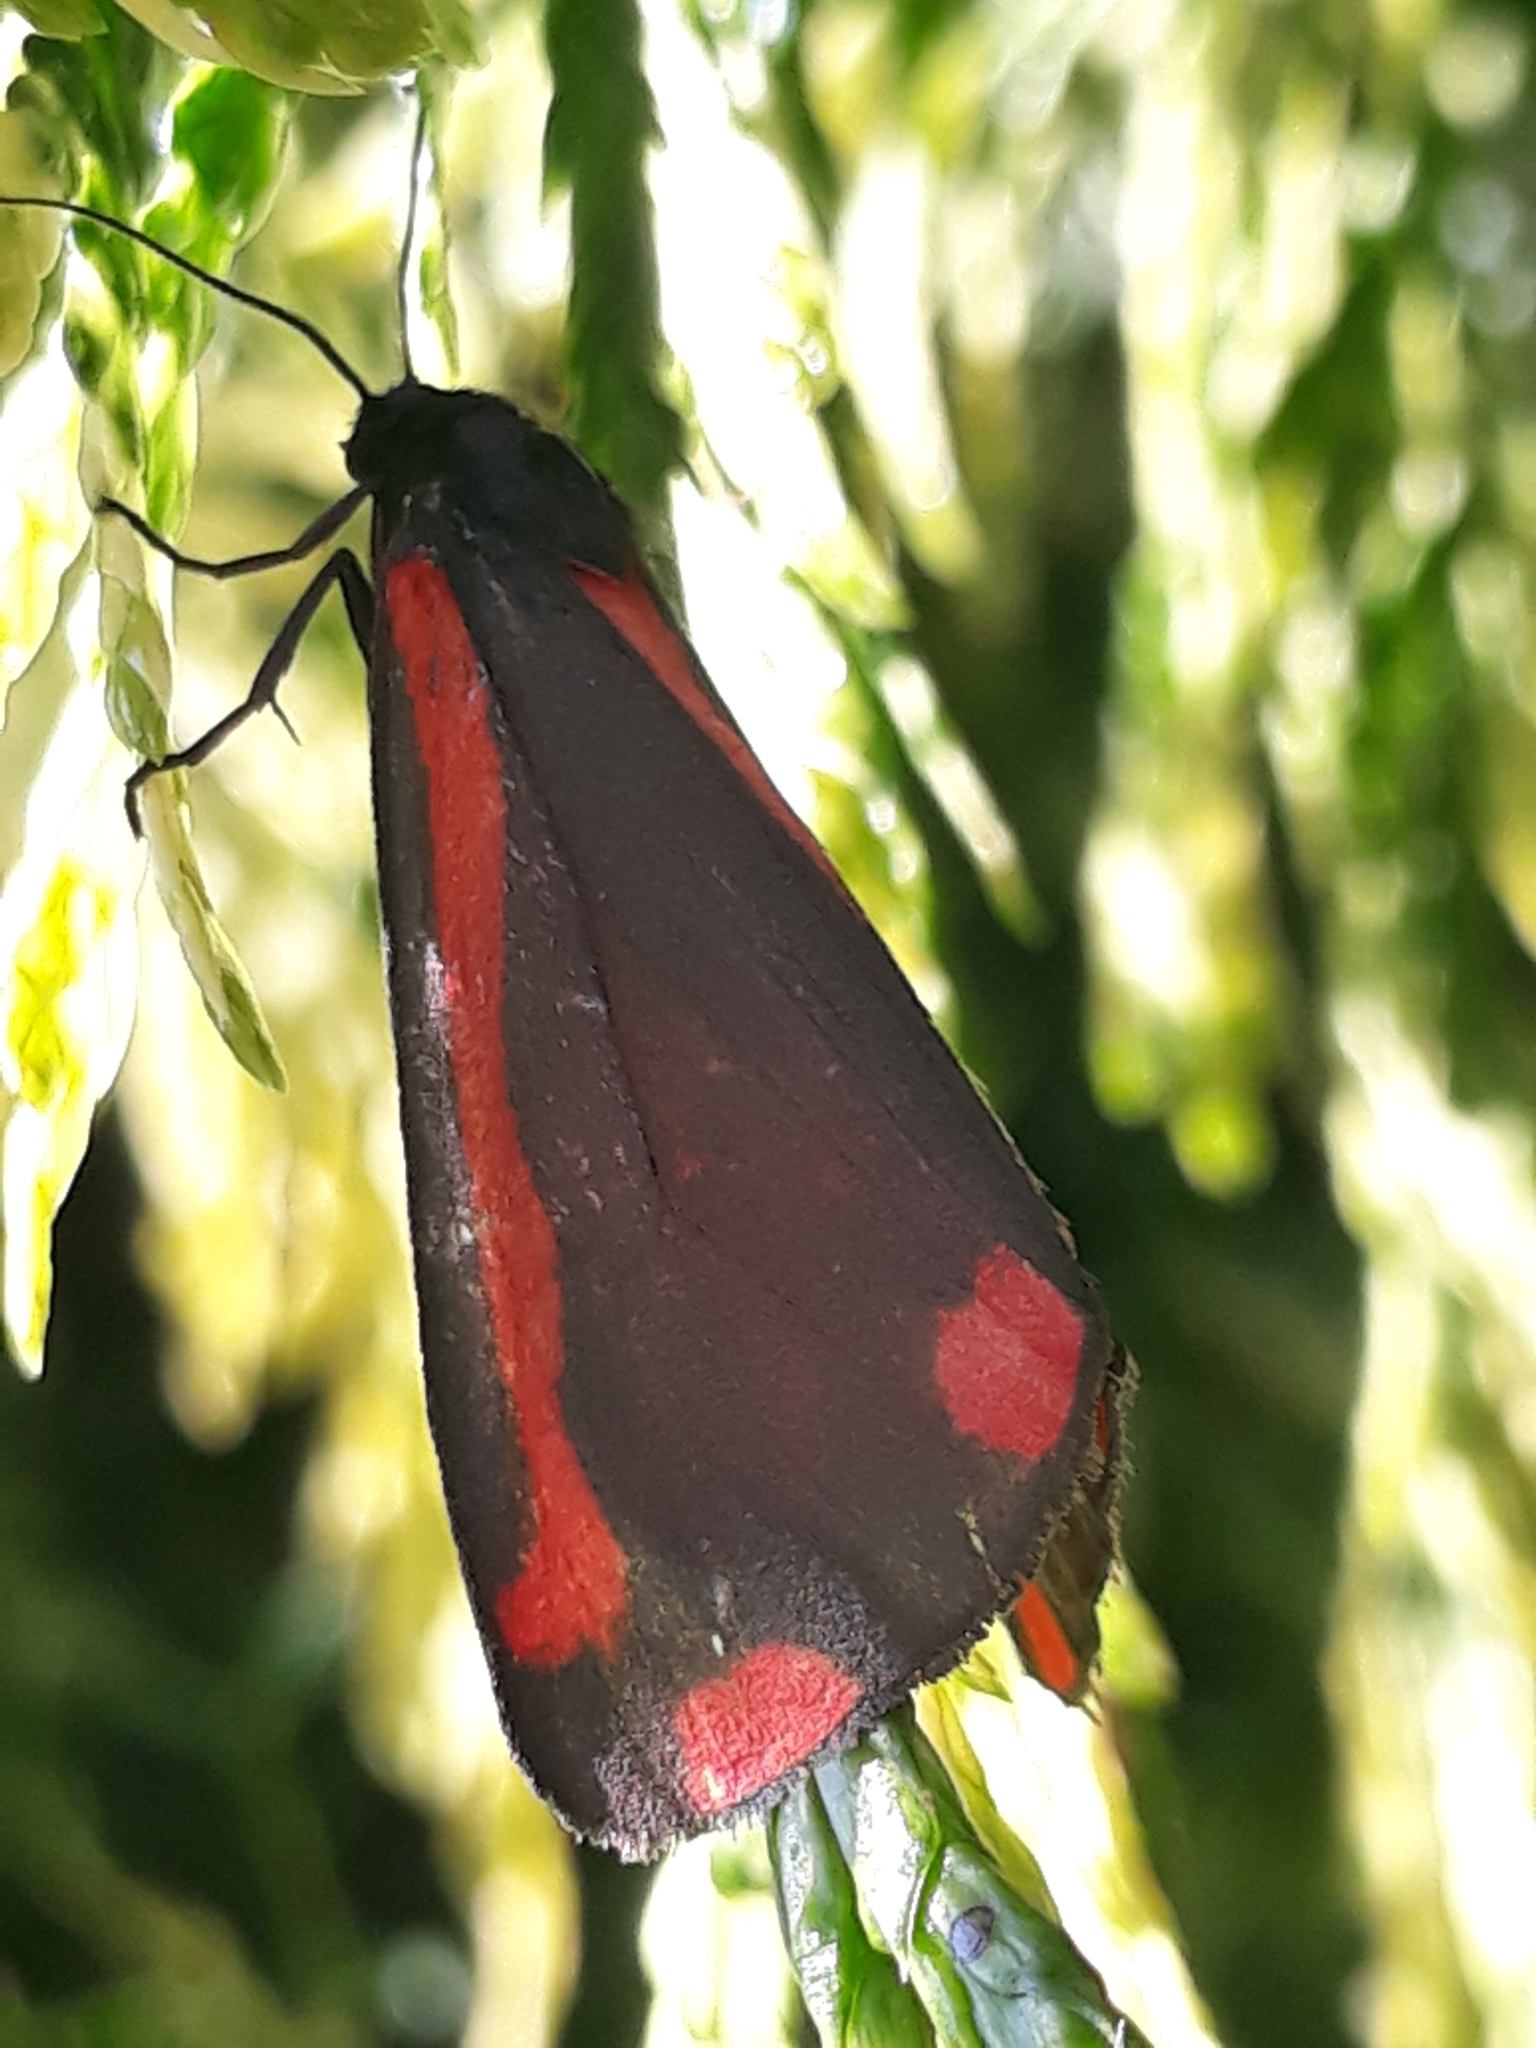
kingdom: Animalia
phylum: Arthropoda
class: Insecta
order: Lepidoptera
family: Erebidae
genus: Tyria
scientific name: Tyria jacobaeae
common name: Cinnabar
